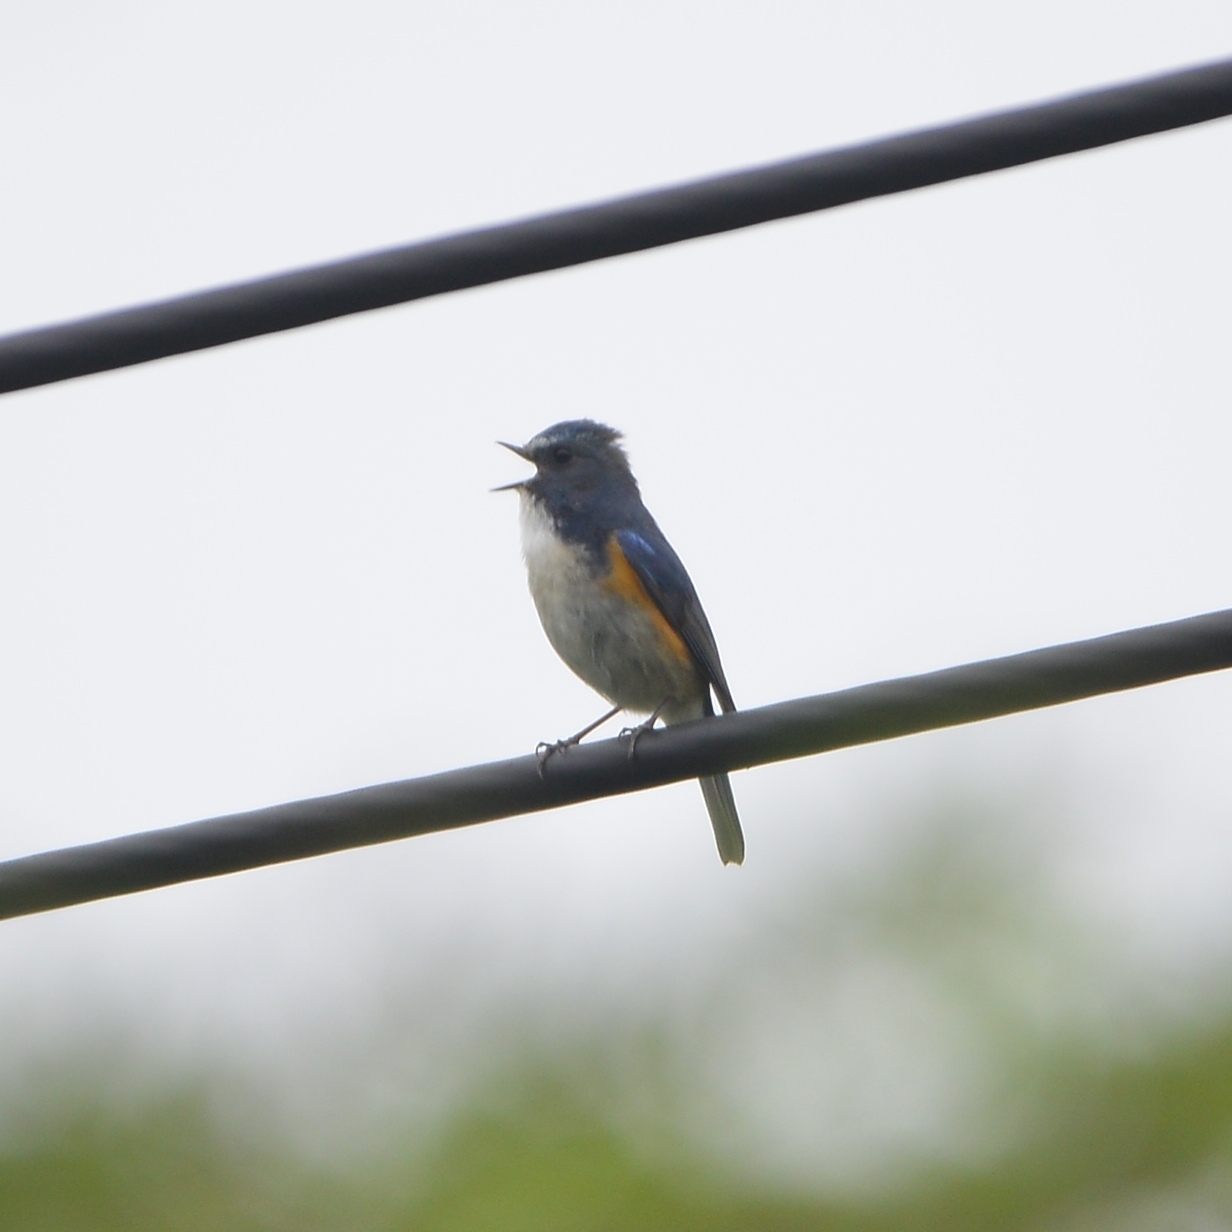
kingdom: Animalia
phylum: Chordata
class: Aves
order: Passeriformes
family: Muscicapidae
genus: Tarsiger
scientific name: Tarsiger cyanurus
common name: Red-flanked bluetail
